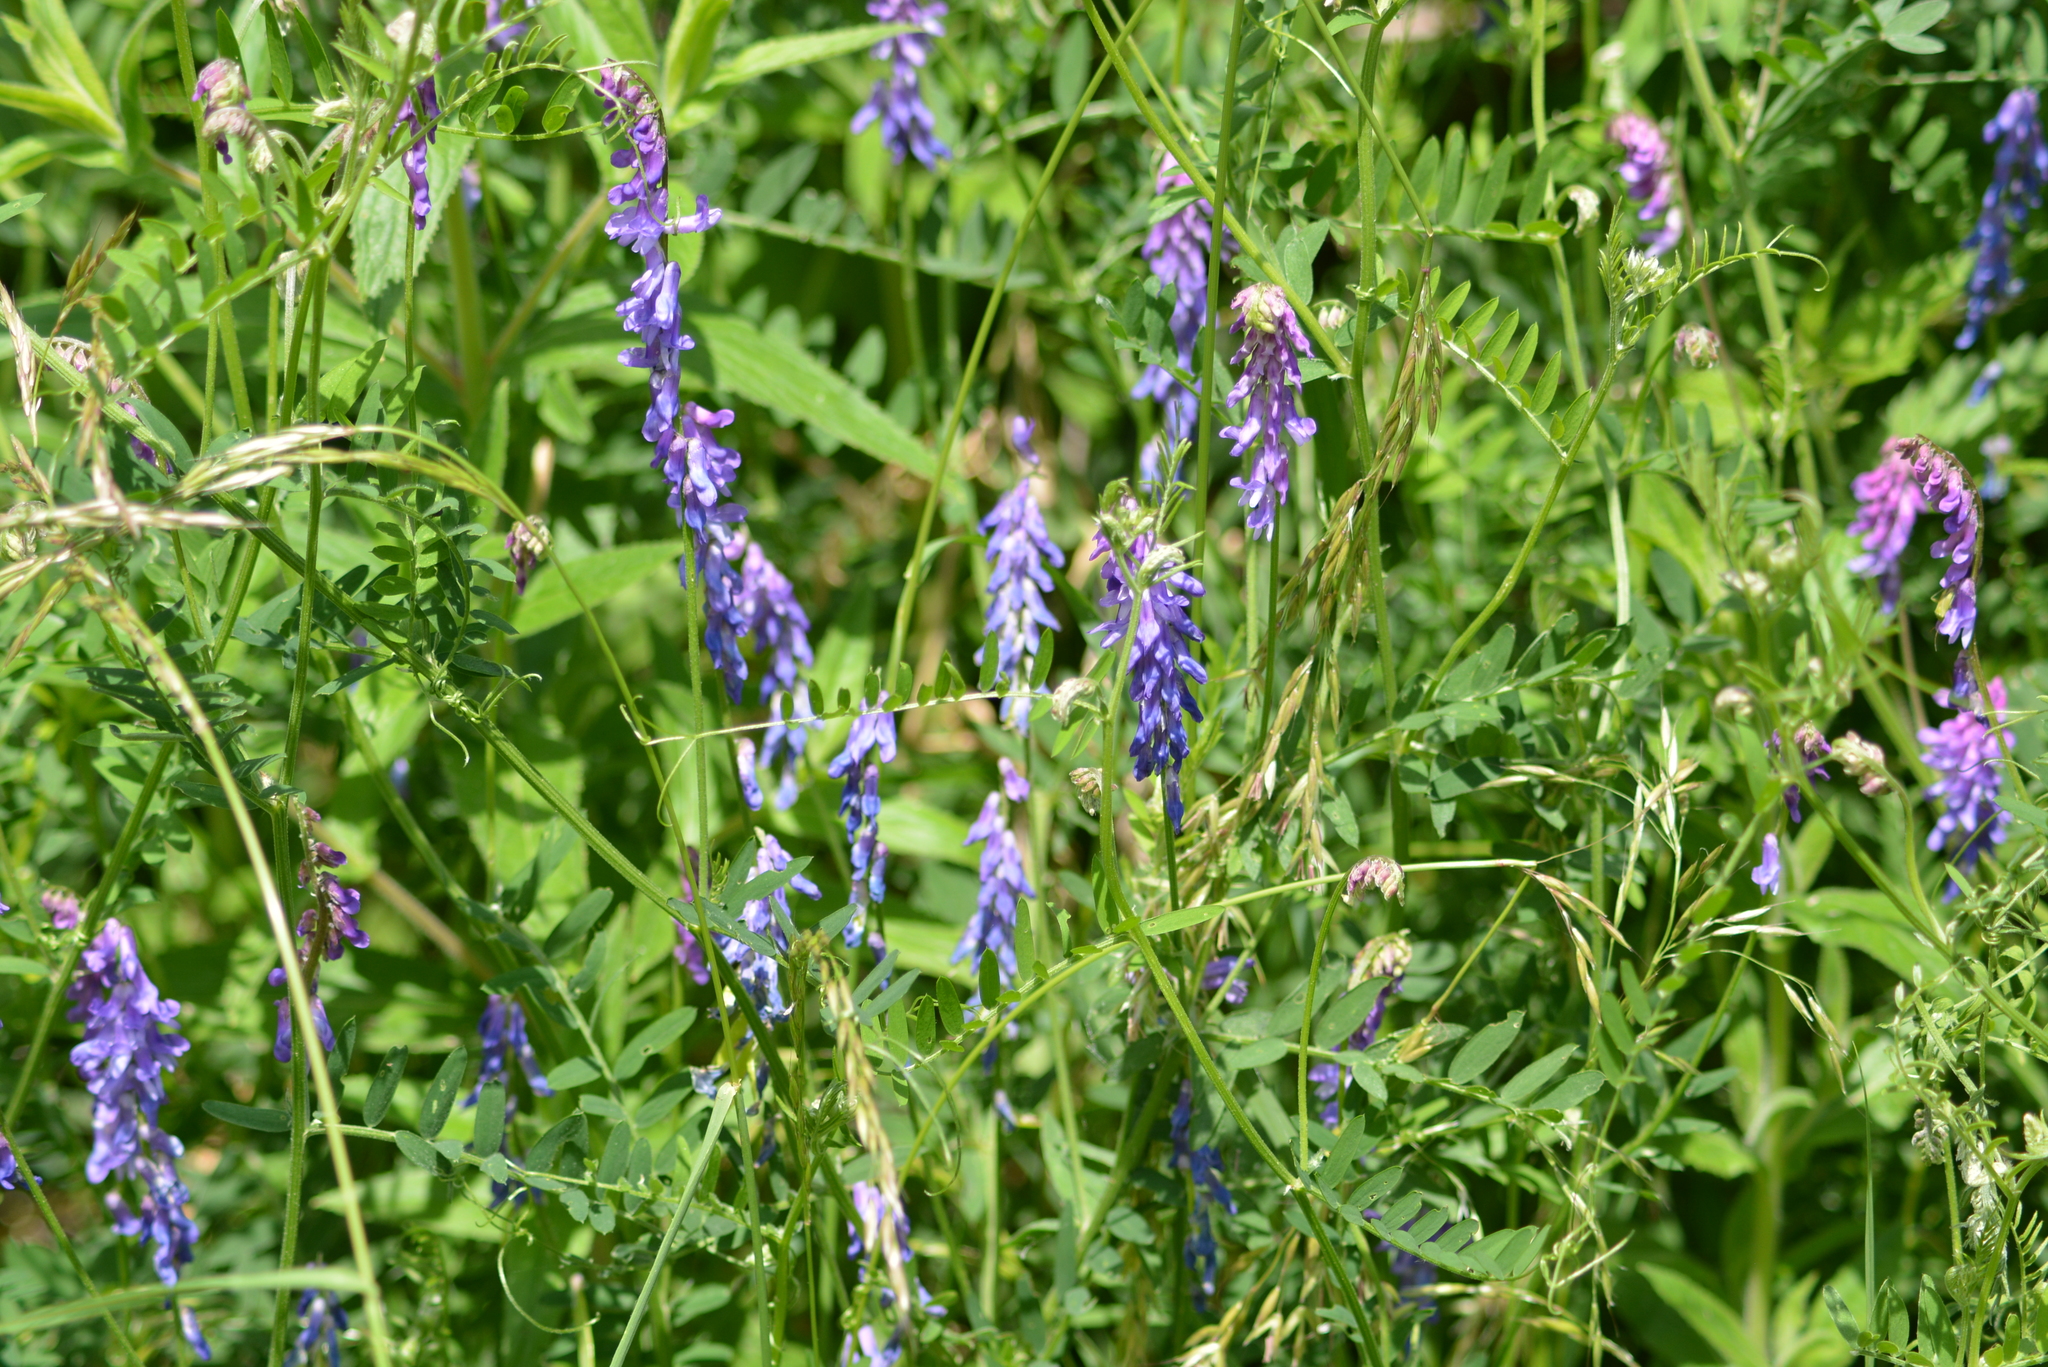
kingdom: Plantae
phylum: Tracheophyta
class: Magnoliopsida
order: Fabales
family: Fabaceae
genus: Vicia
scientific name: Vicia cracca
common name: Bird vetch
